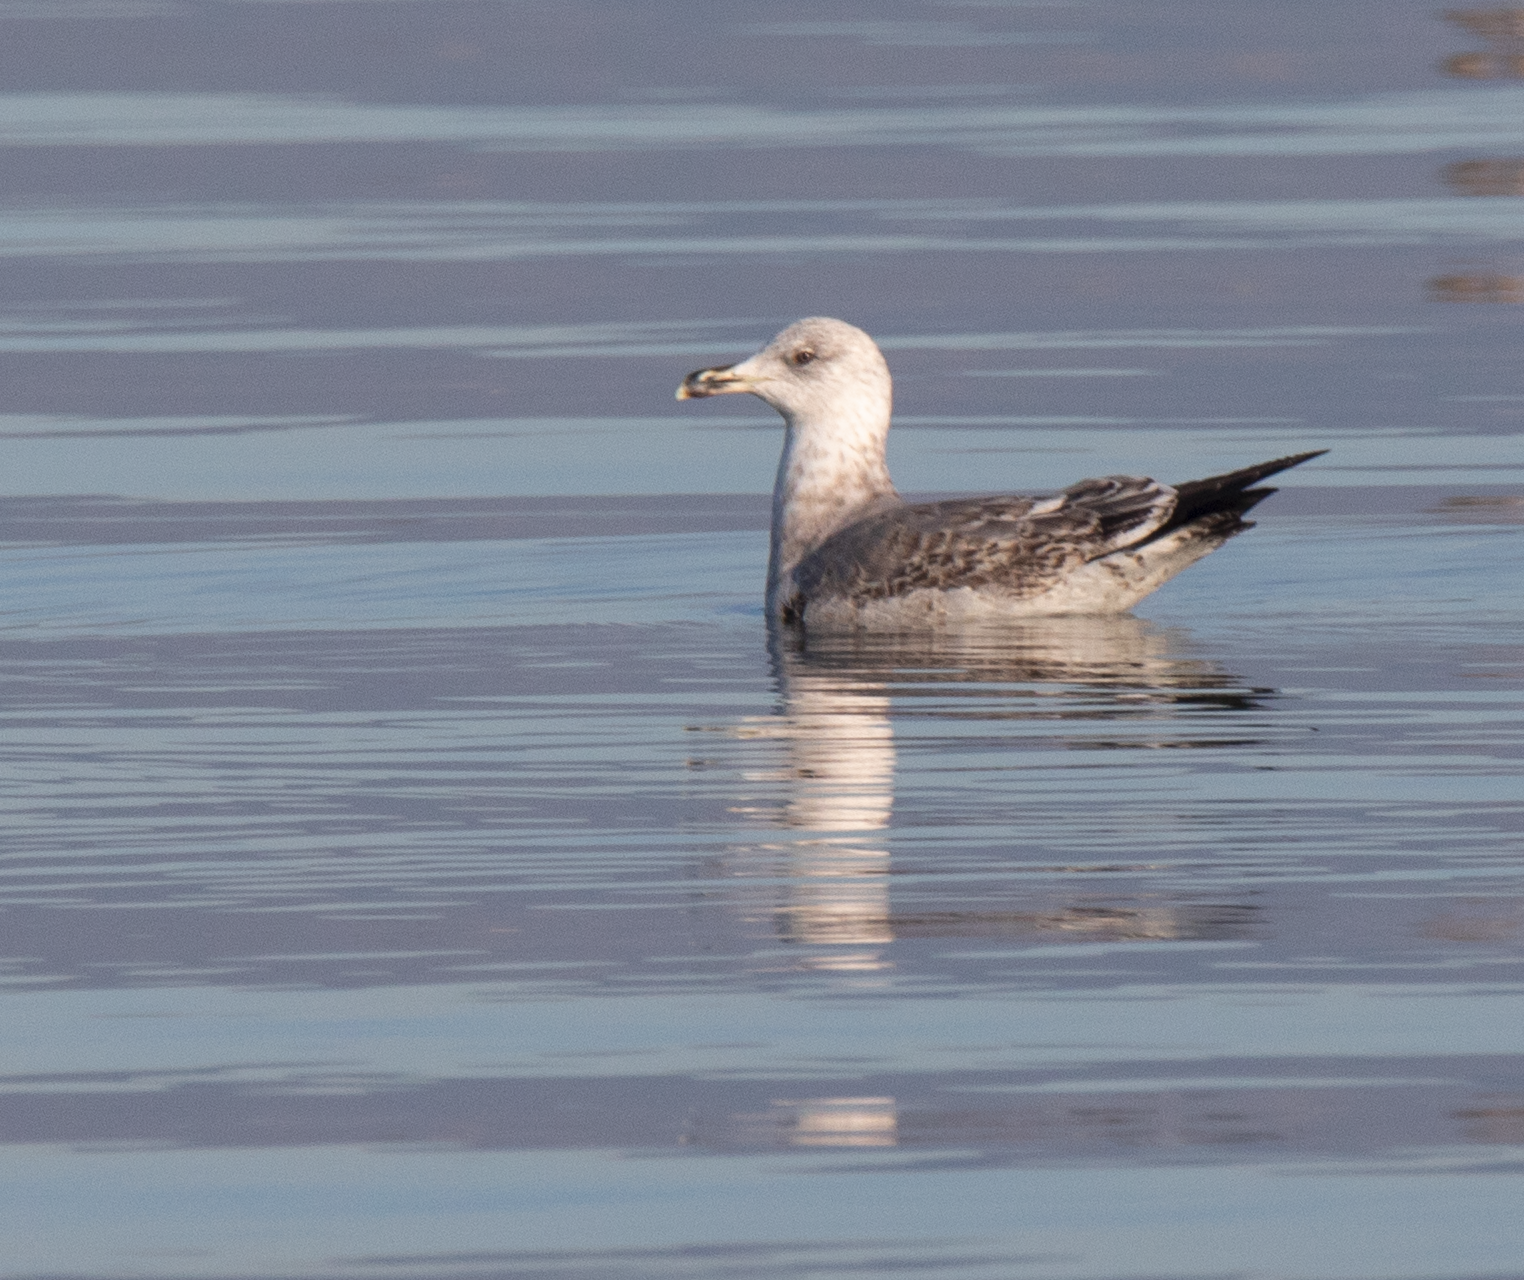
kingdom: Animalia
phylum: Chordata
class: Aves
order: Charadriiformes
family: Laridae
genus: Larus
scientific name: Larus michahellis
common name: Yellow-legged gull
